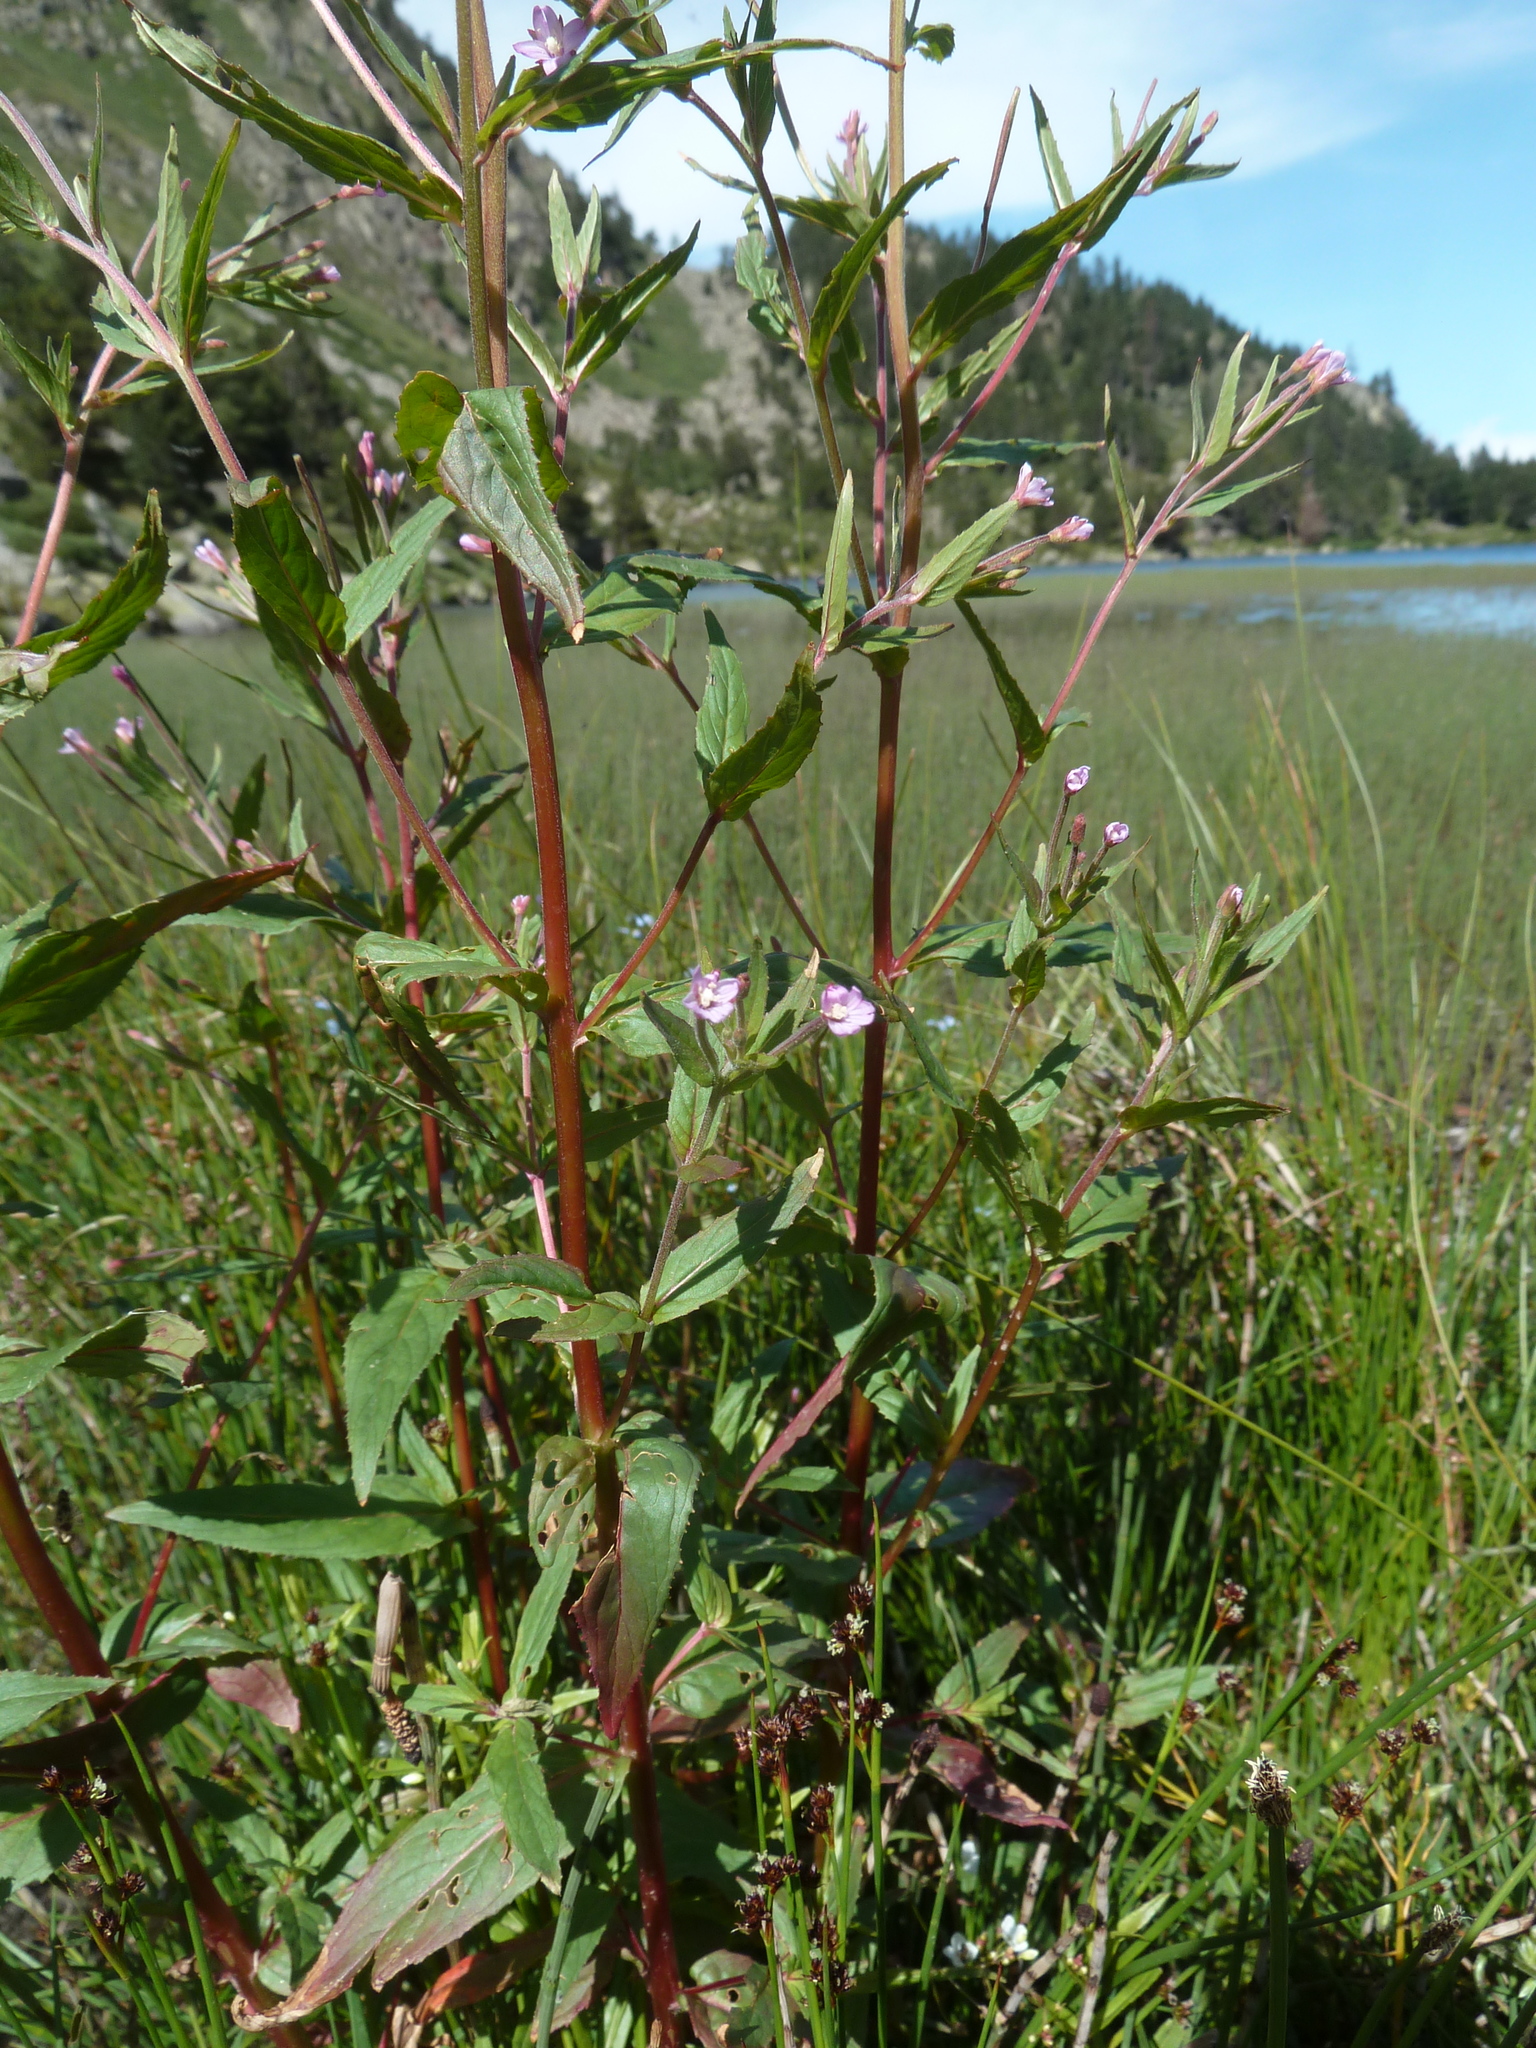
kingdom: Plantae
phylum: Tracheophyta
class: Magnoliopsida
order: Myrtales
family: Onagraceae
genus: Epilobium
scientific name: Epilobium tetragonum
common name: Square-stemmed willowherb
